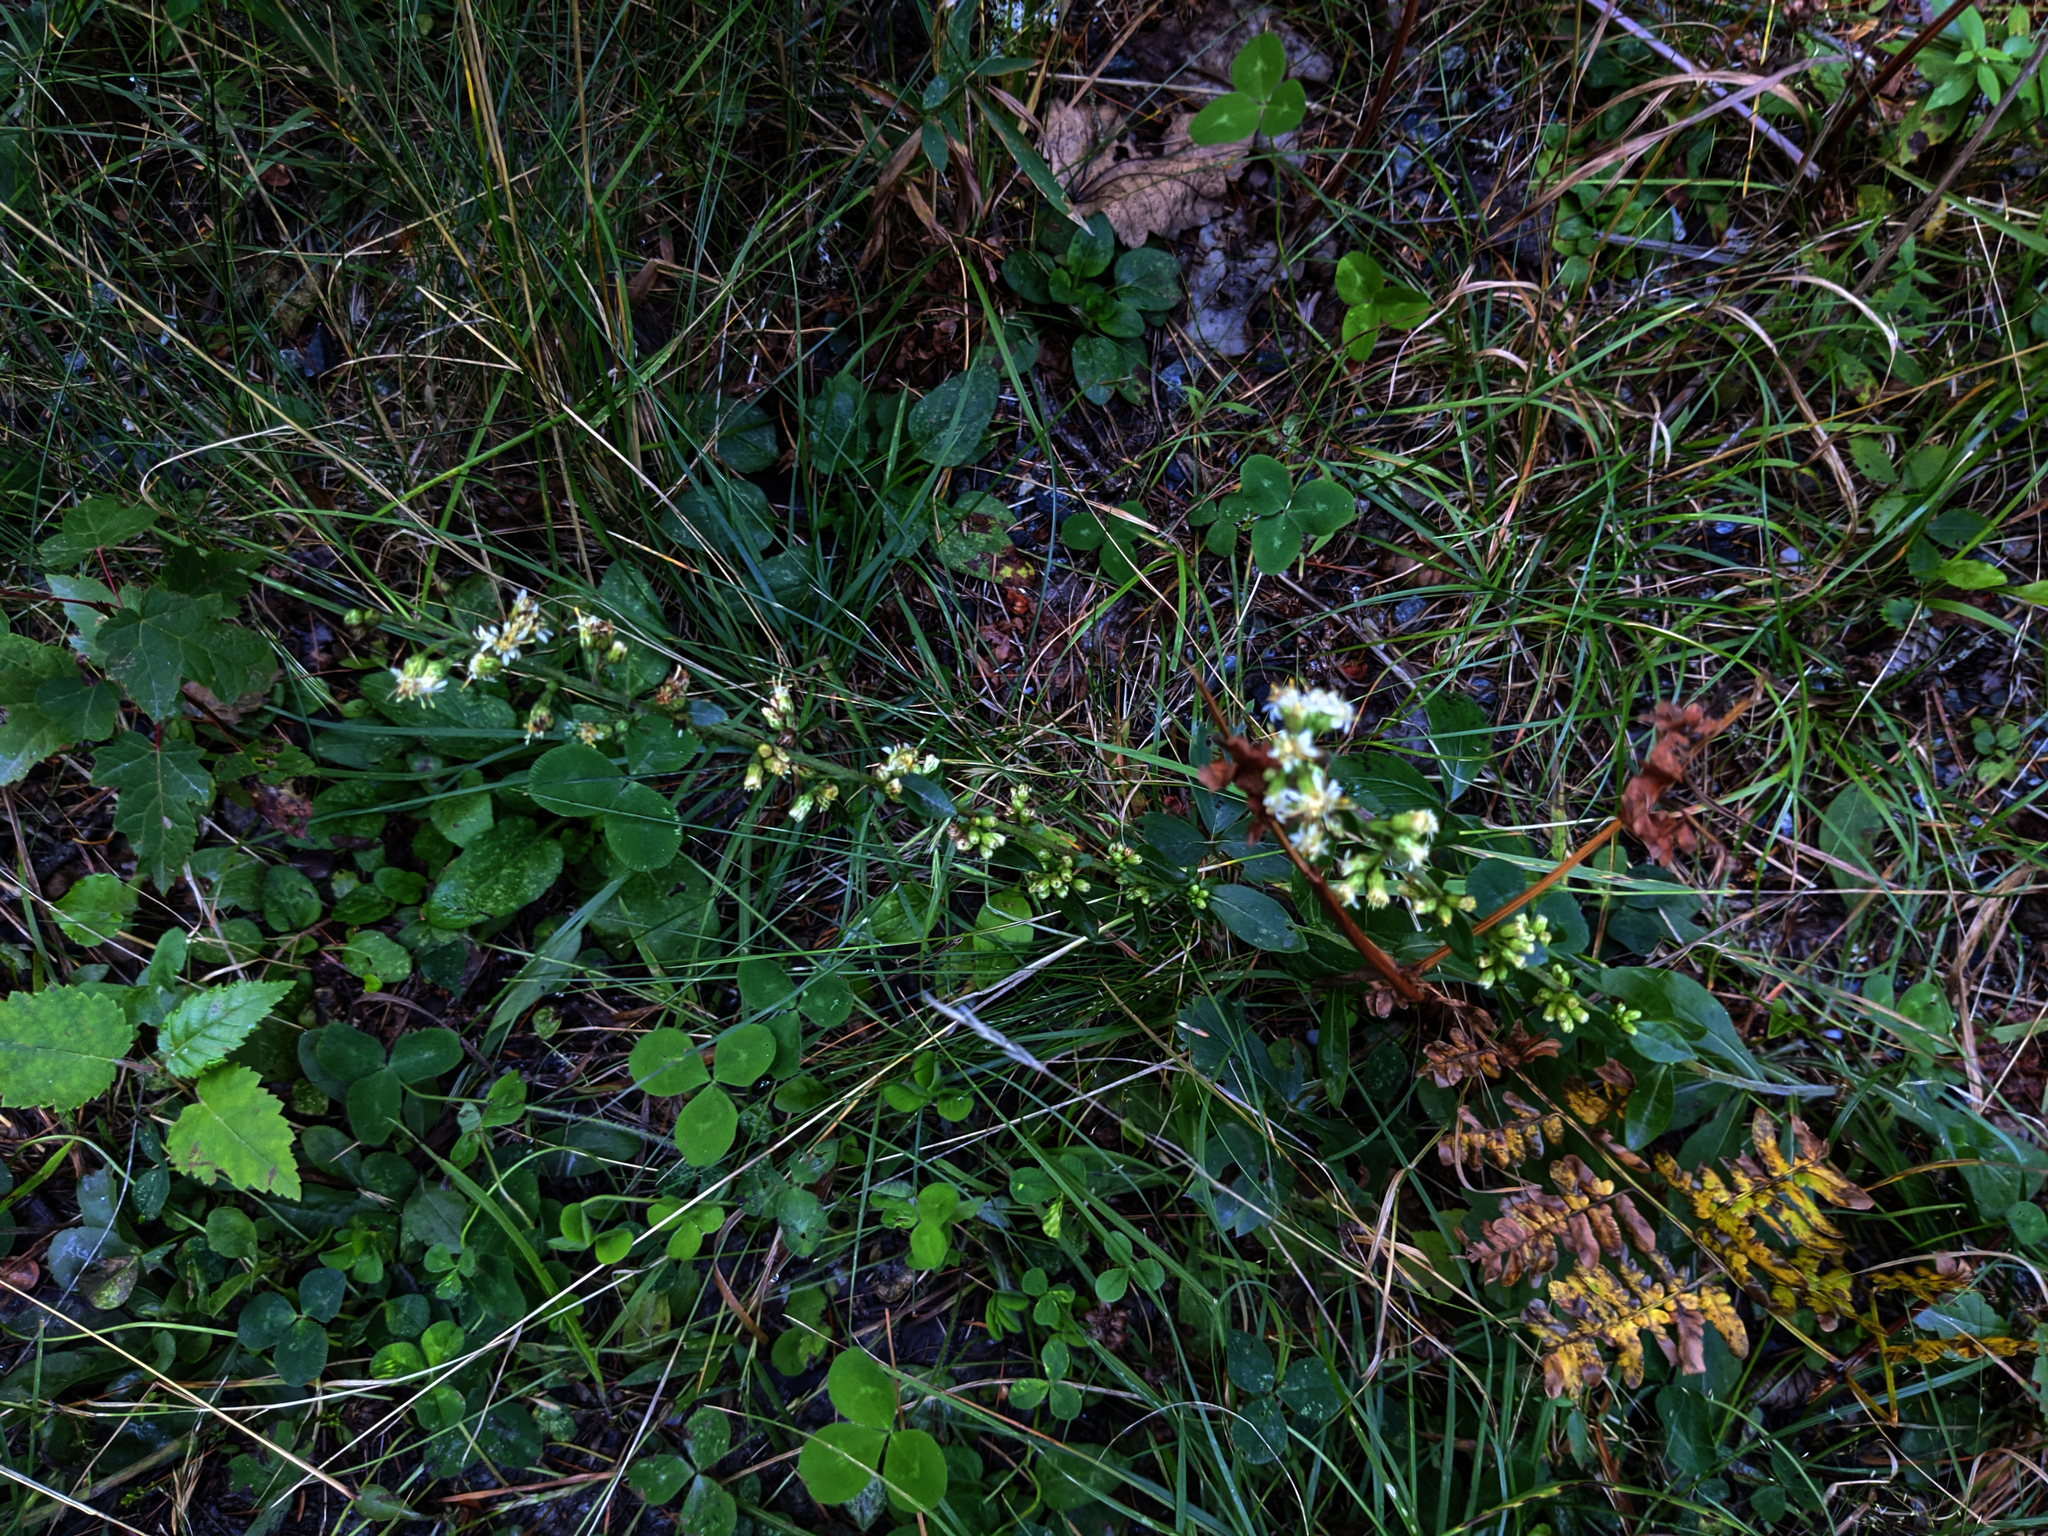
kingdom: Plantae
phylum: Tracheophyta
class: Magnoliopsida
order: Asterales
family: Asteraceae
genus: Solidago
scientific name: Solidago bicolor
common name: Silverrod
